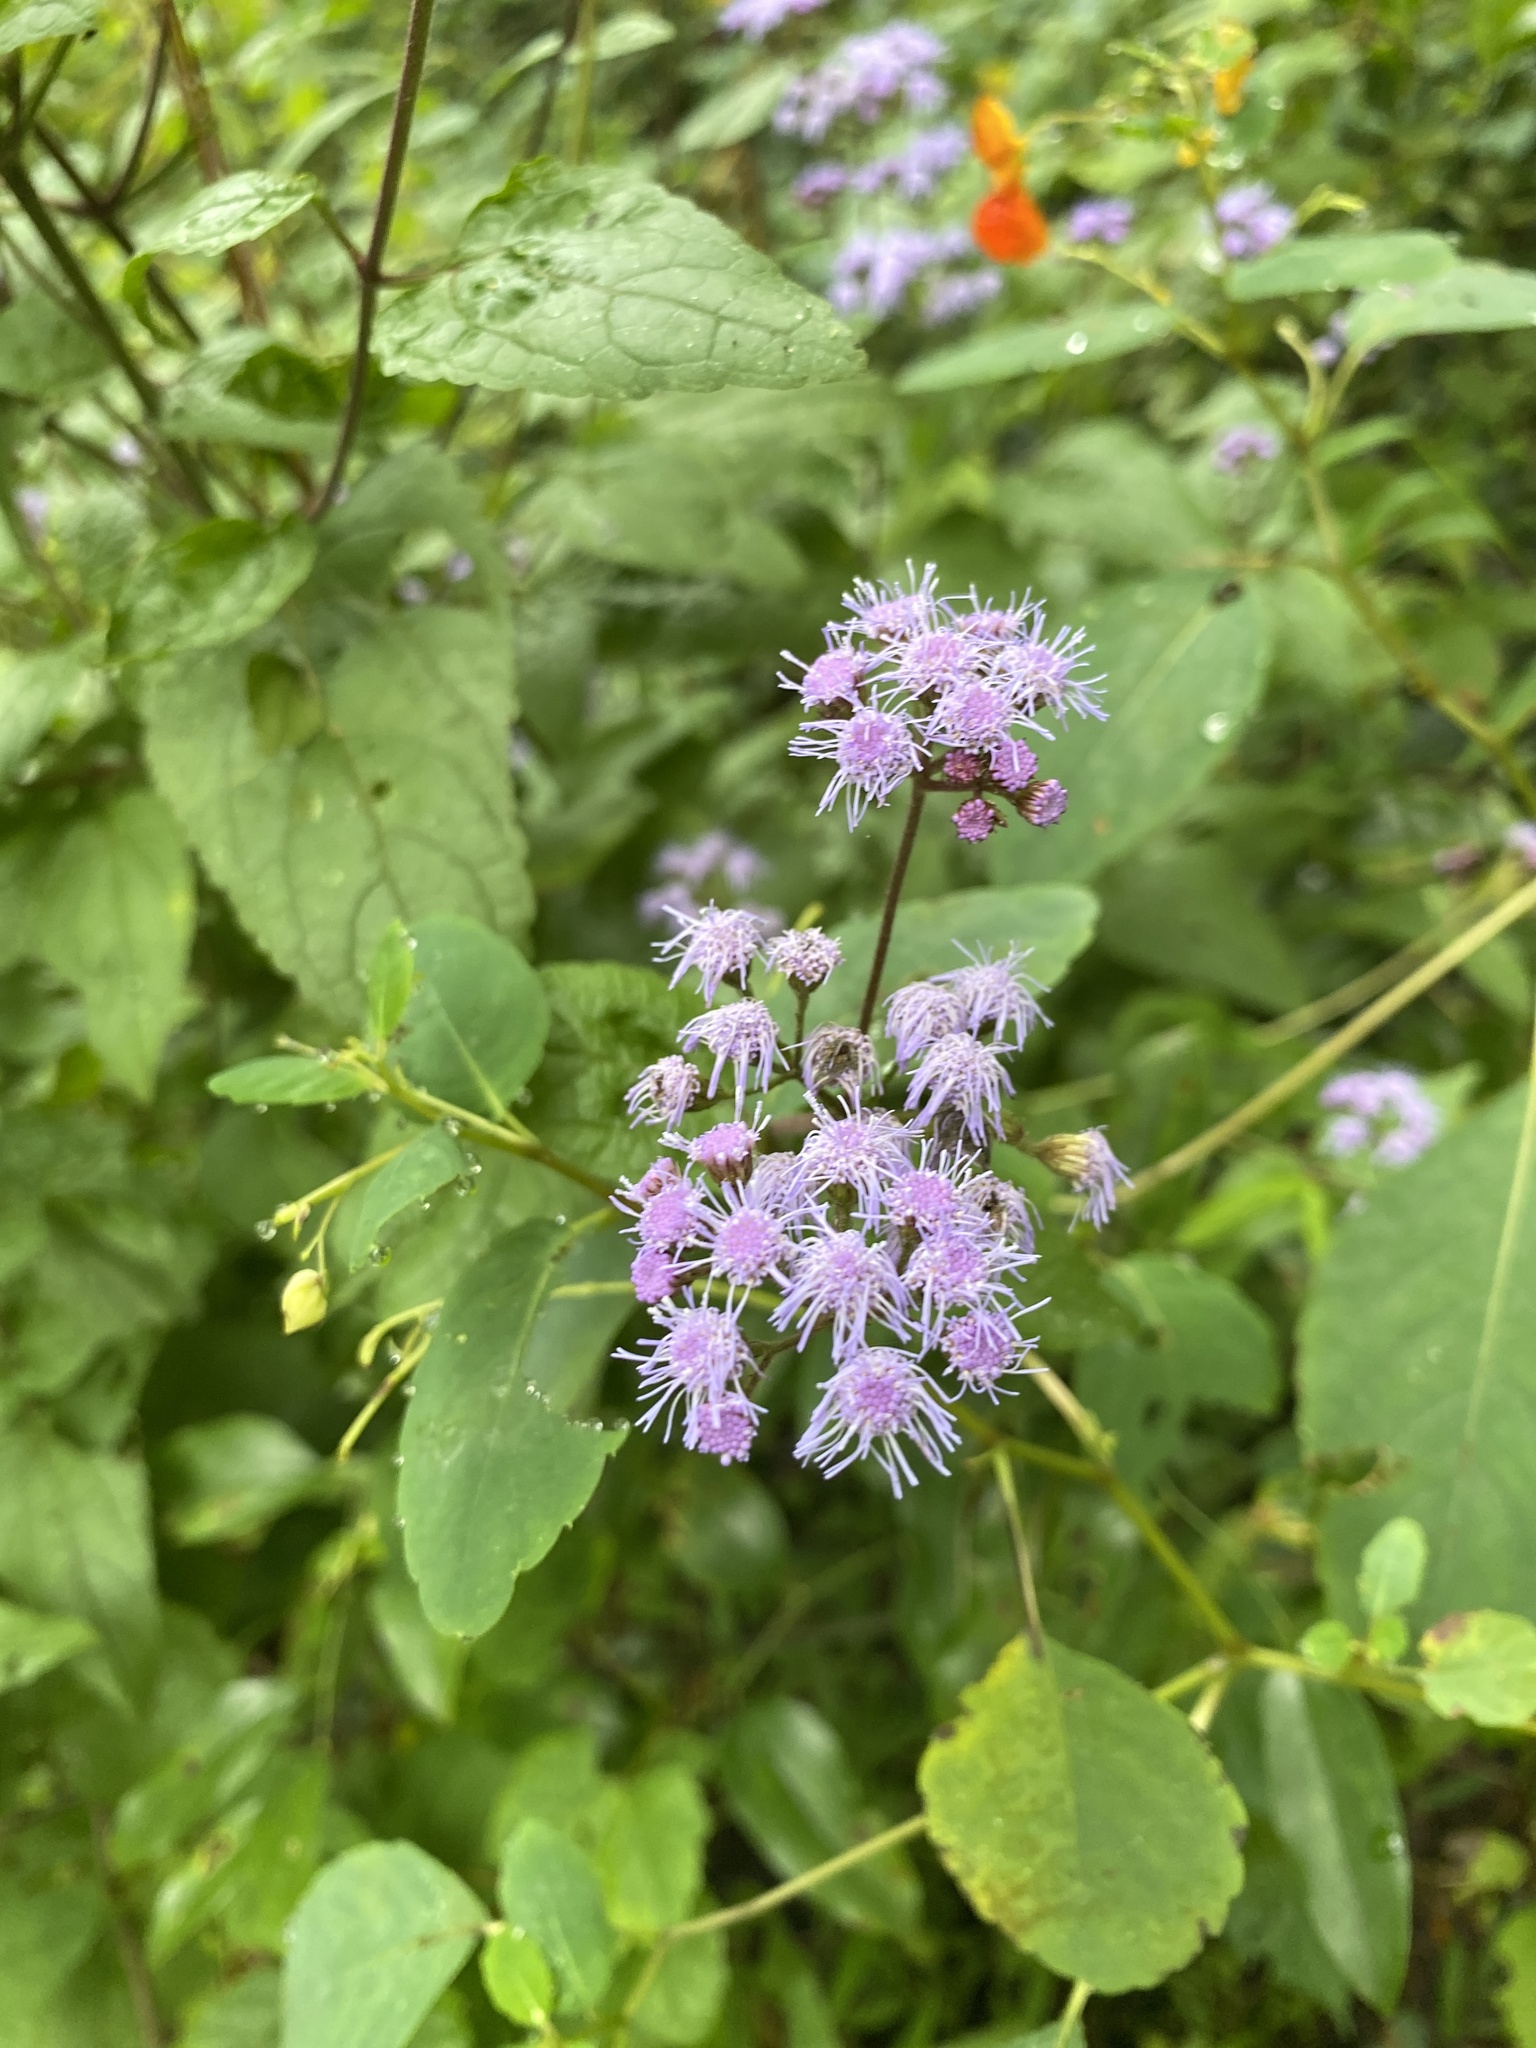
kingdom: Plantae
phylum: Tracheophyta
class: Magnoliopsida
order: Asterales
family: Asteraceae
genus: Conoclinium
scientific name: Conoclinium coelestinum
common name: Blue mistflower
